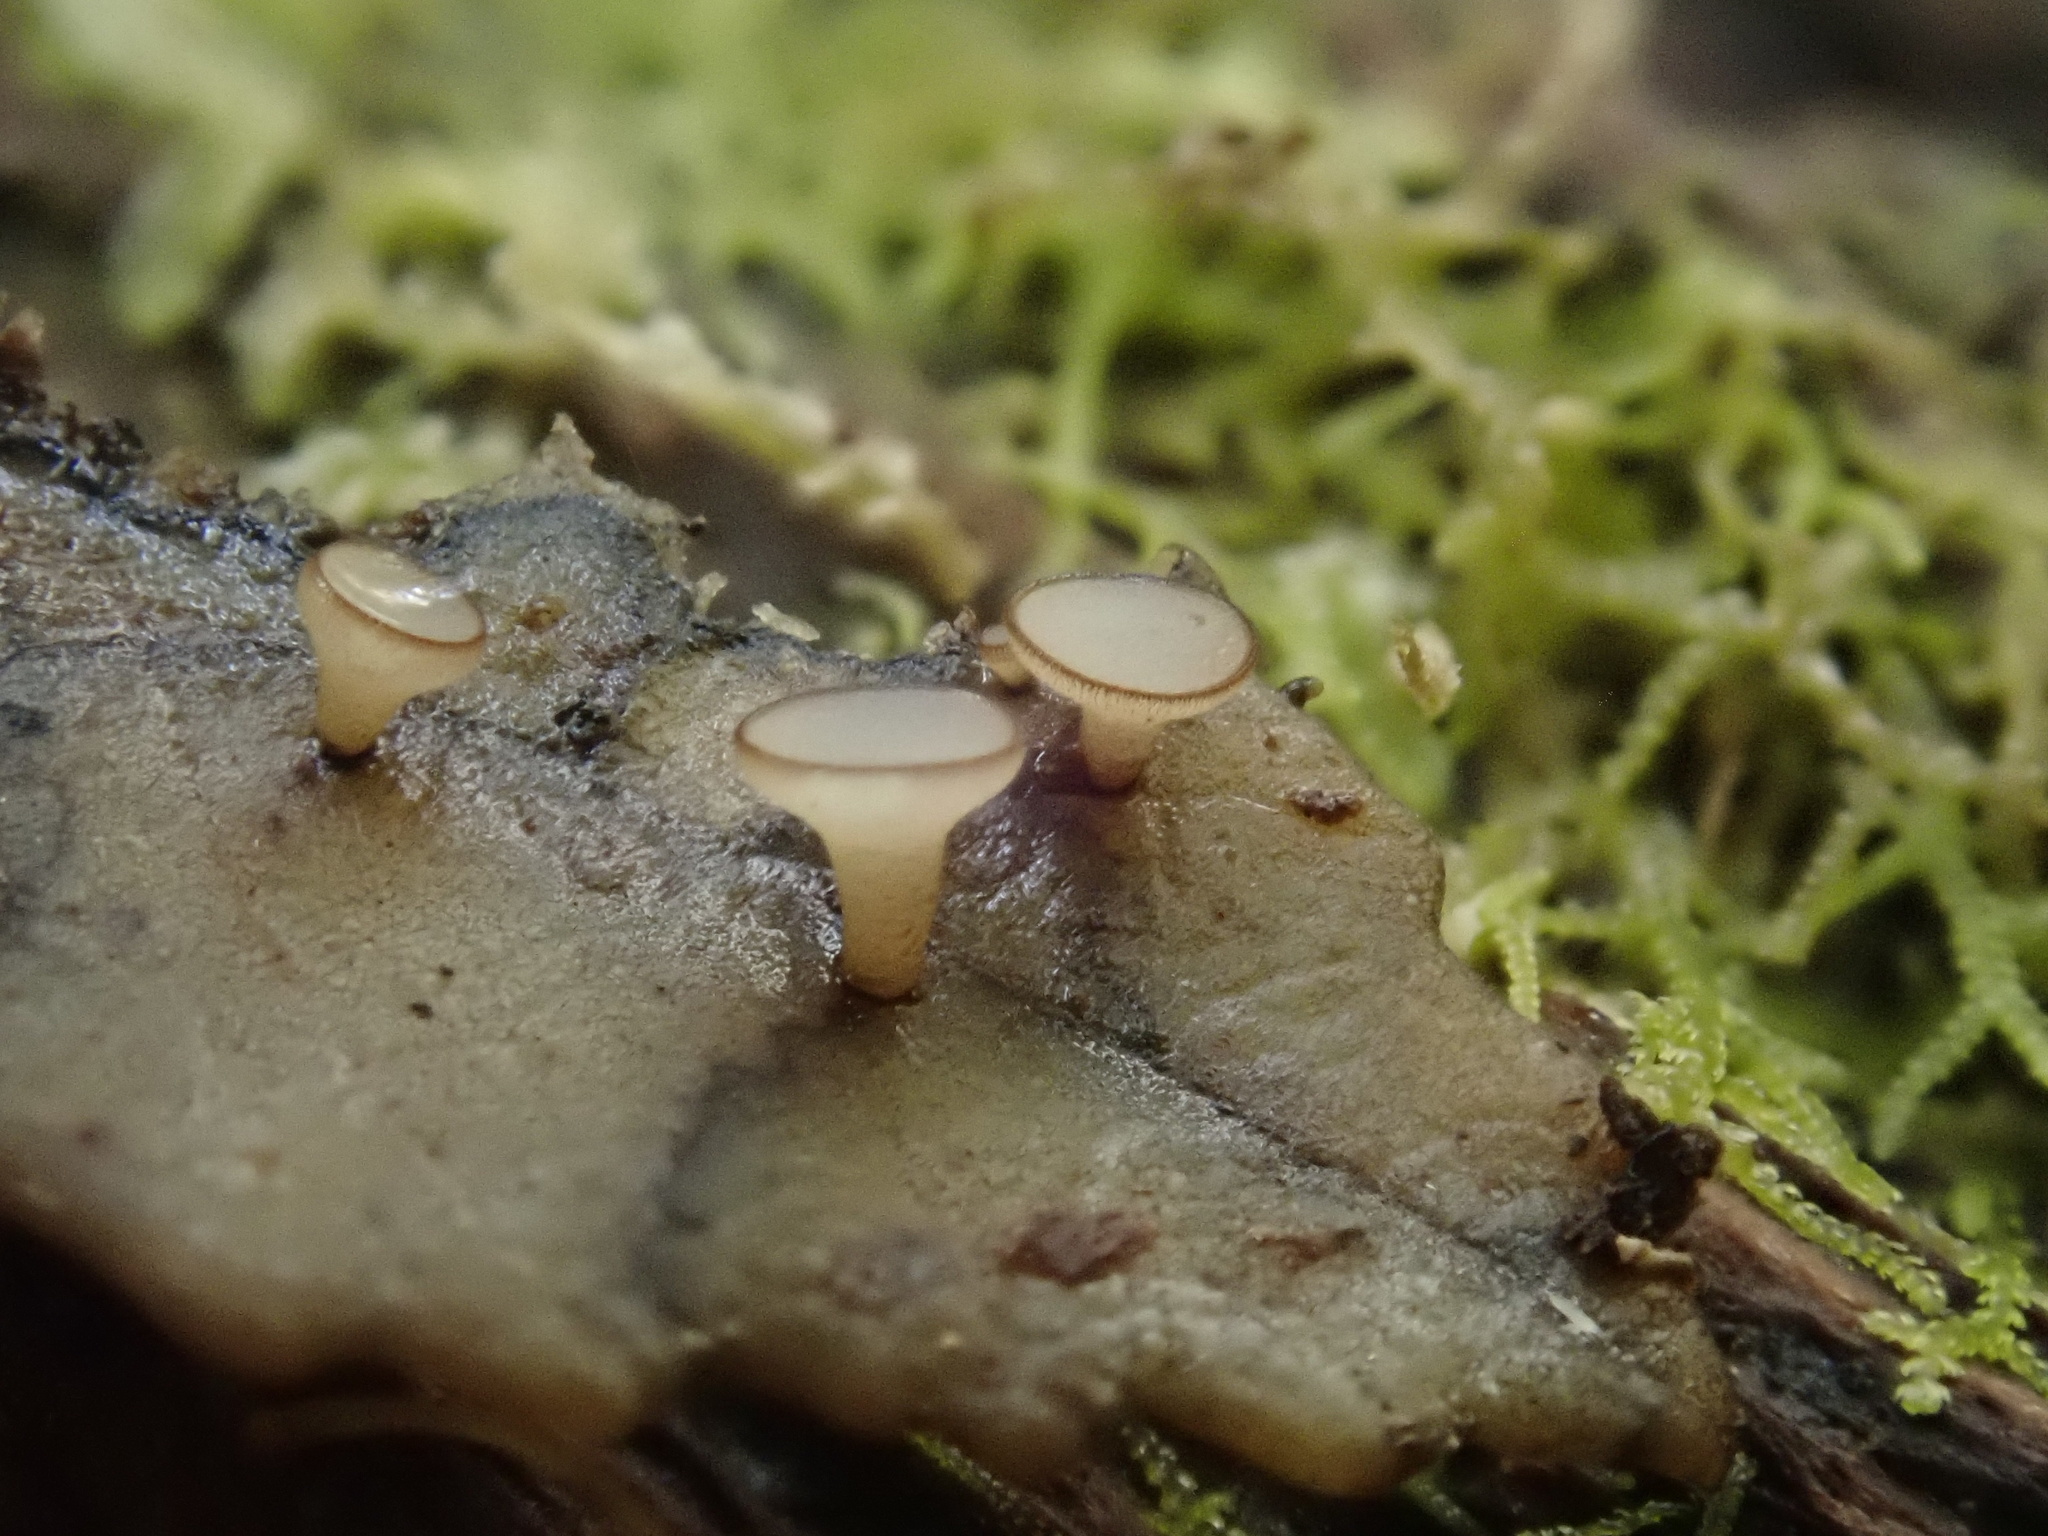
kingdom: Fungi
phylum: Ascomycota
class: Leotiomycetes
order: Helotiales
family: Rutstroemiaceae
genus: Lanzia
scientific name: Lanzia berggrenii
